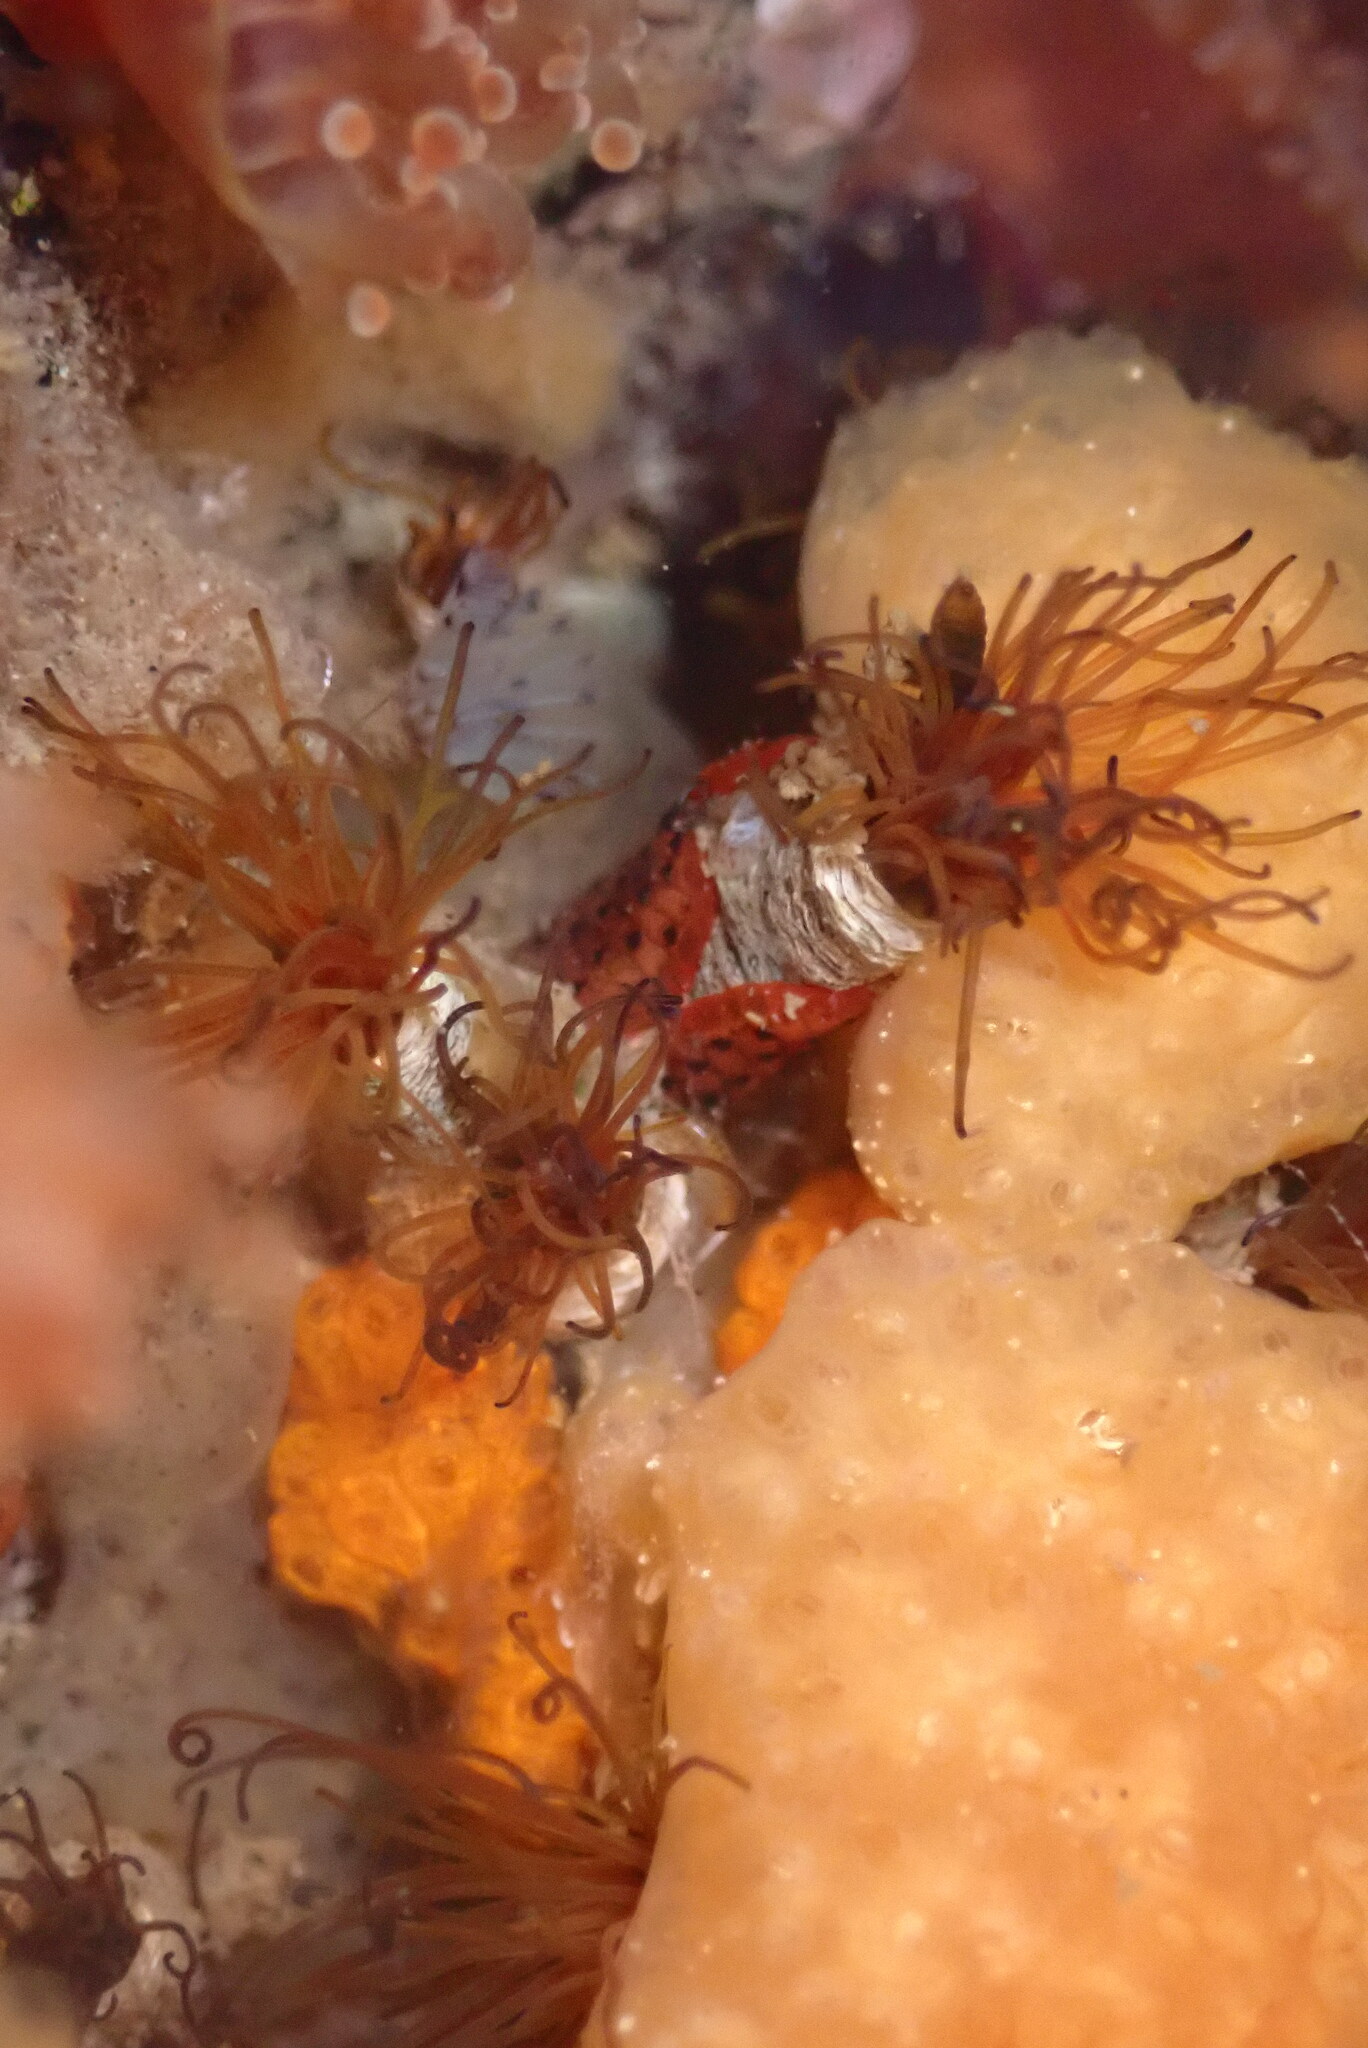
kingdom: Animalia
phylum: Annelida
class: Polychaeta
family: Cirratulidae
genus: Dodecaceria
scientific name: Dodecaceria pacifica
